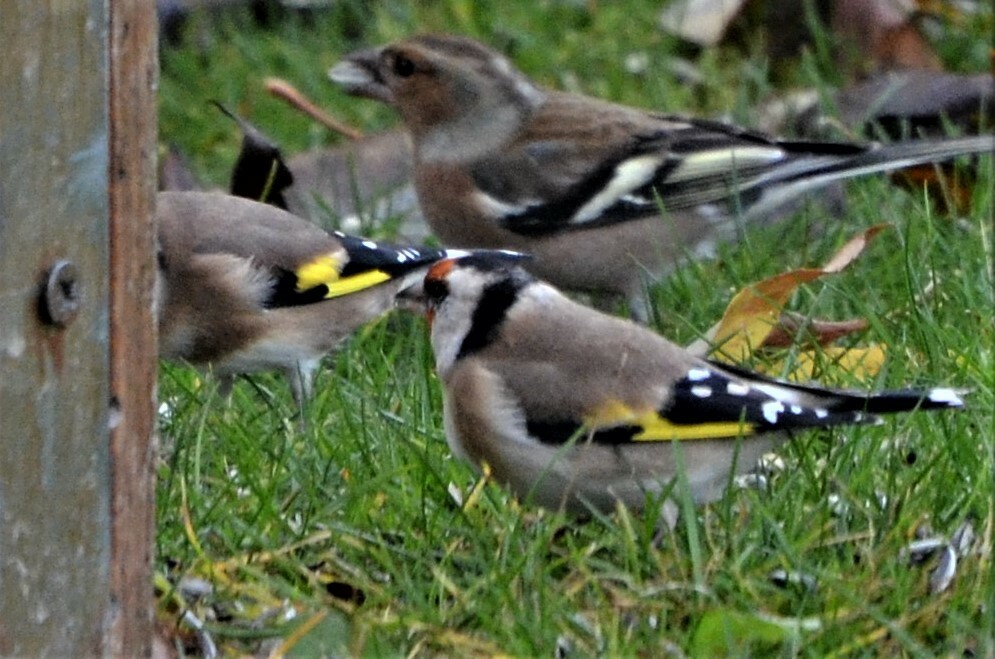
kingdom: Animalia
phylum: Chordata
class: Aves
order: Passeriformes
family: Fringillidae
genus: Carduelis
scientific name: Carduelis carduelis
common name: European goldfinch
